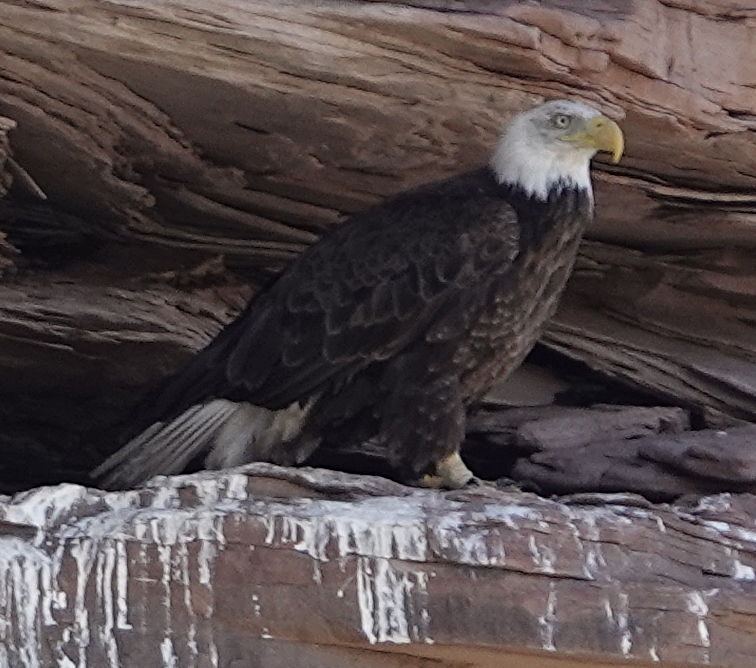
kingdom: Animalia
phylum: Chordata
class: Aves
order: Accipitriformes
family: Accipitridae
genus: Haliaeetus
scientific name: Haliaeetus leucocephalus
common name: Bald eagle
